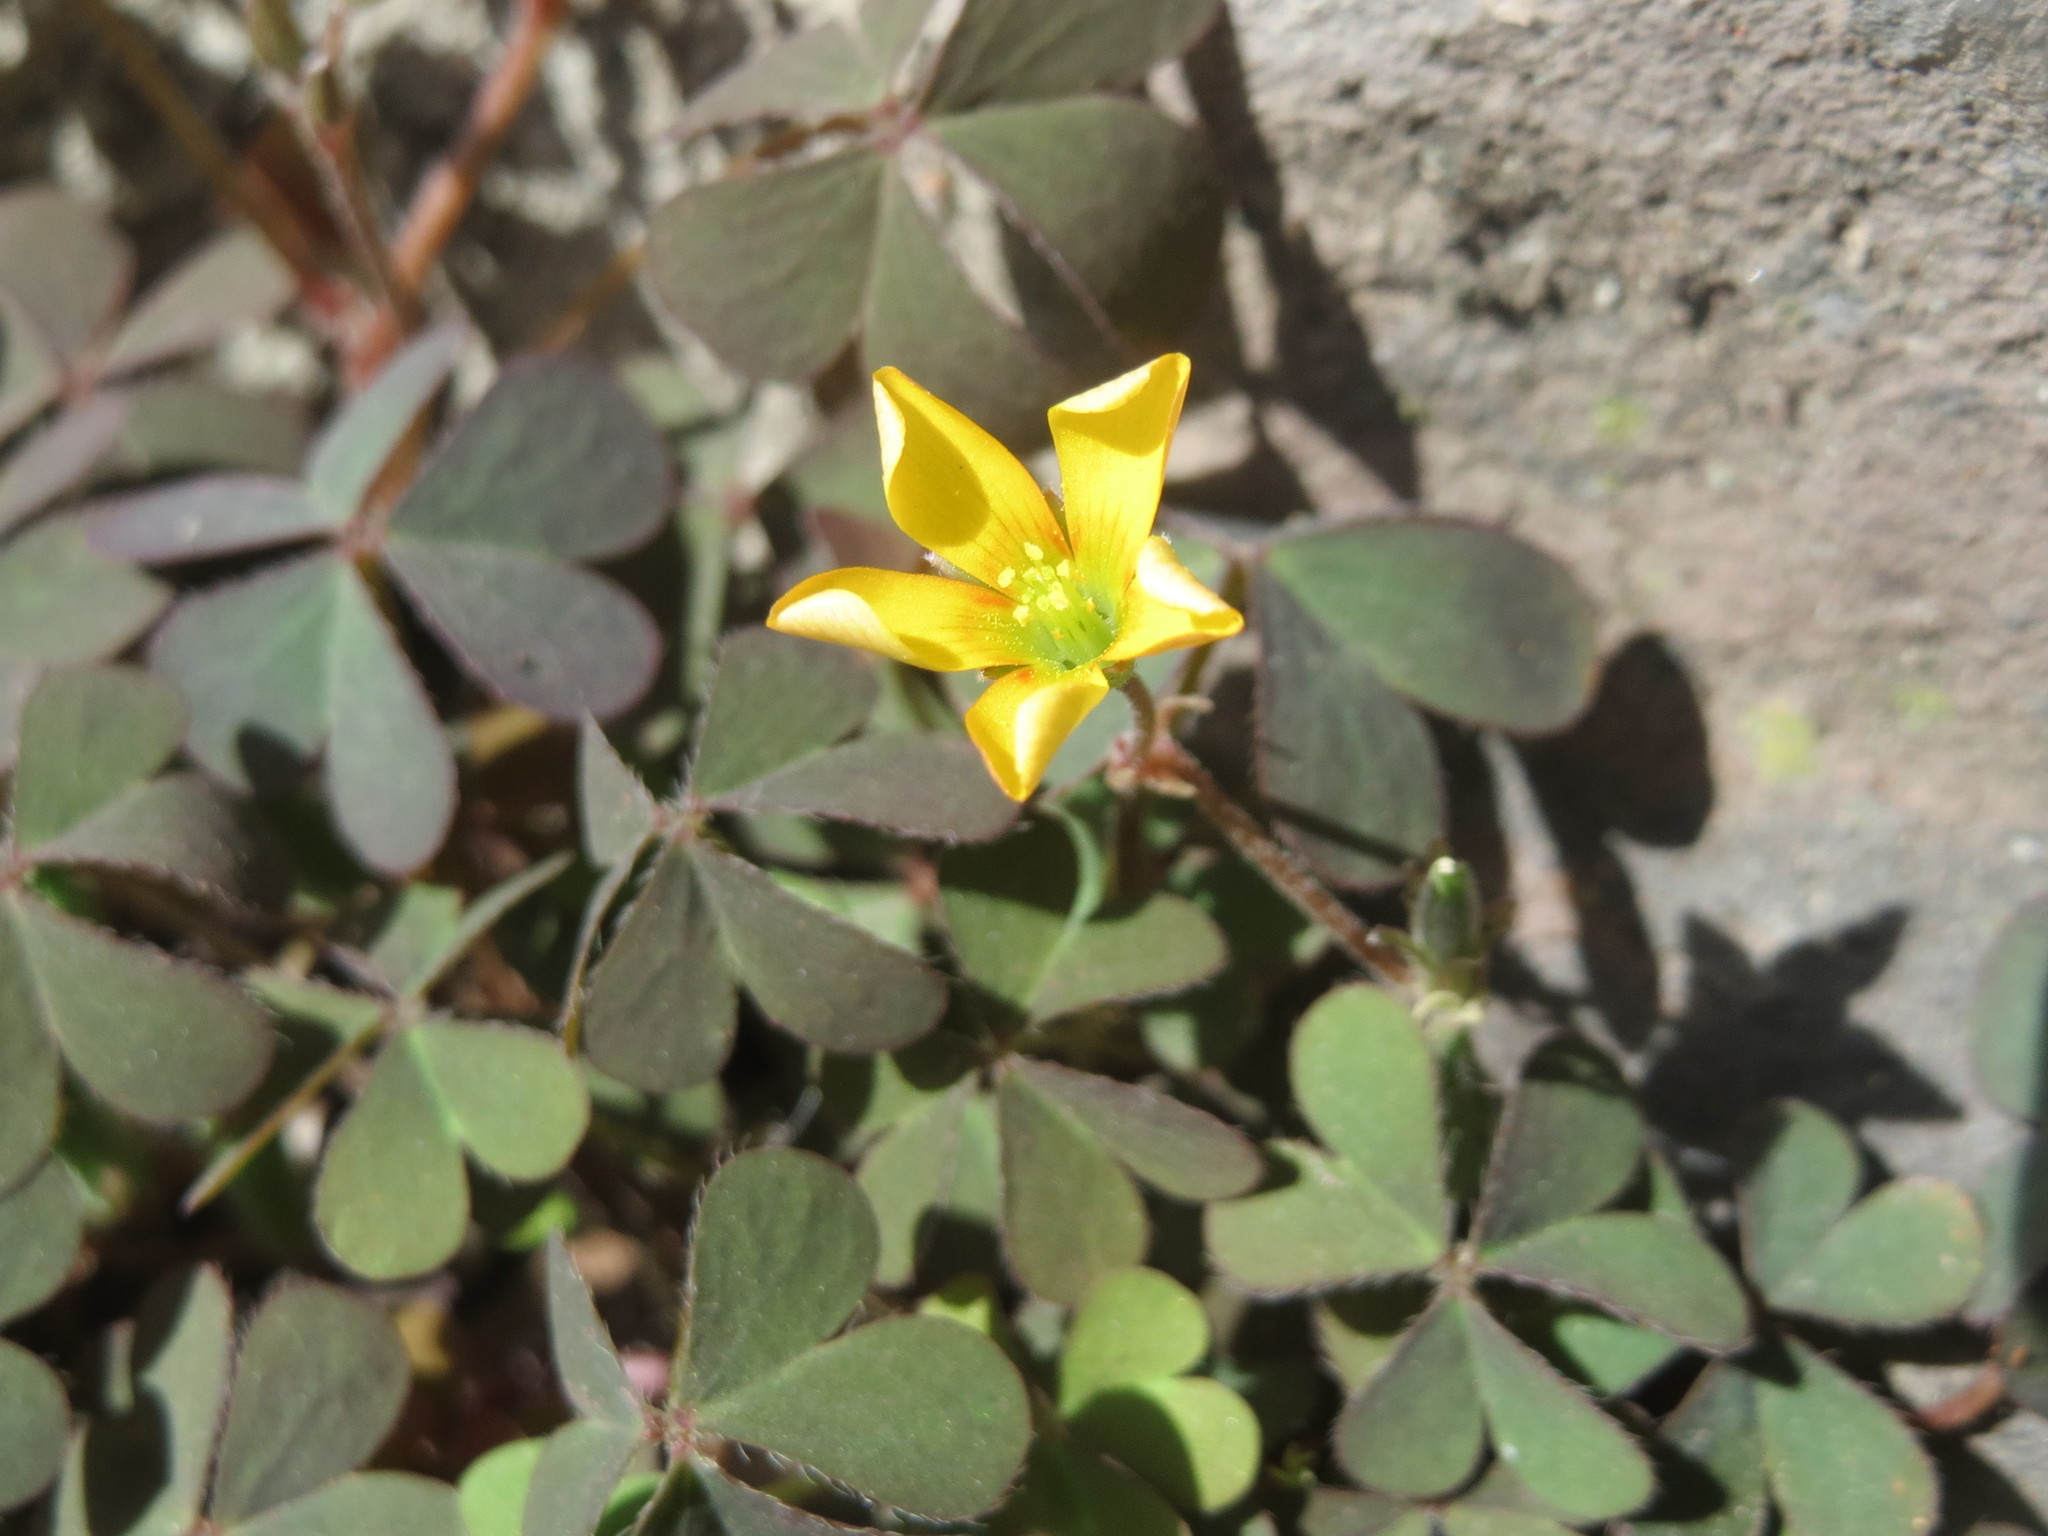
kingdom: Plantae
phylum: Tracheophyta
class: Magnoliopsida
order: Oxalidales
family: Oxalidaceae
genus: Oxalis
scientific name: Oxalis corniculata
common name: Procumbent yellow-sorrel
